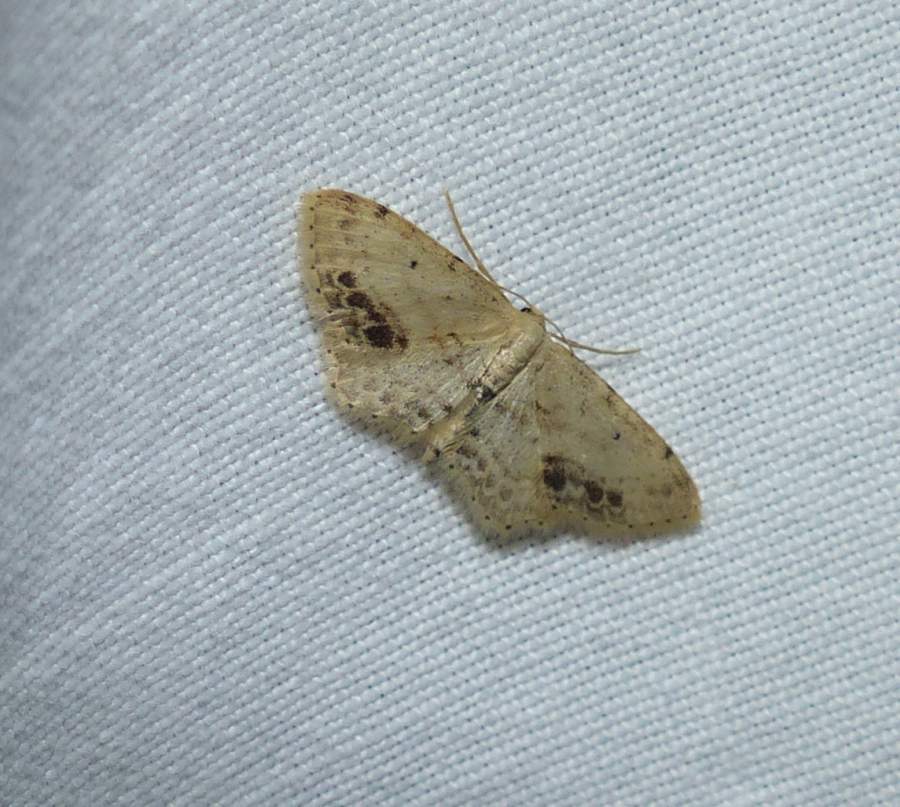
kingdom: Animalia
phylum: Arthropoda
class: Insecta
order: Lepidoptera
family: Geometridae
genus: Idaea
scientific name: Idaea dimidiata
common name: Single-dotted wave
